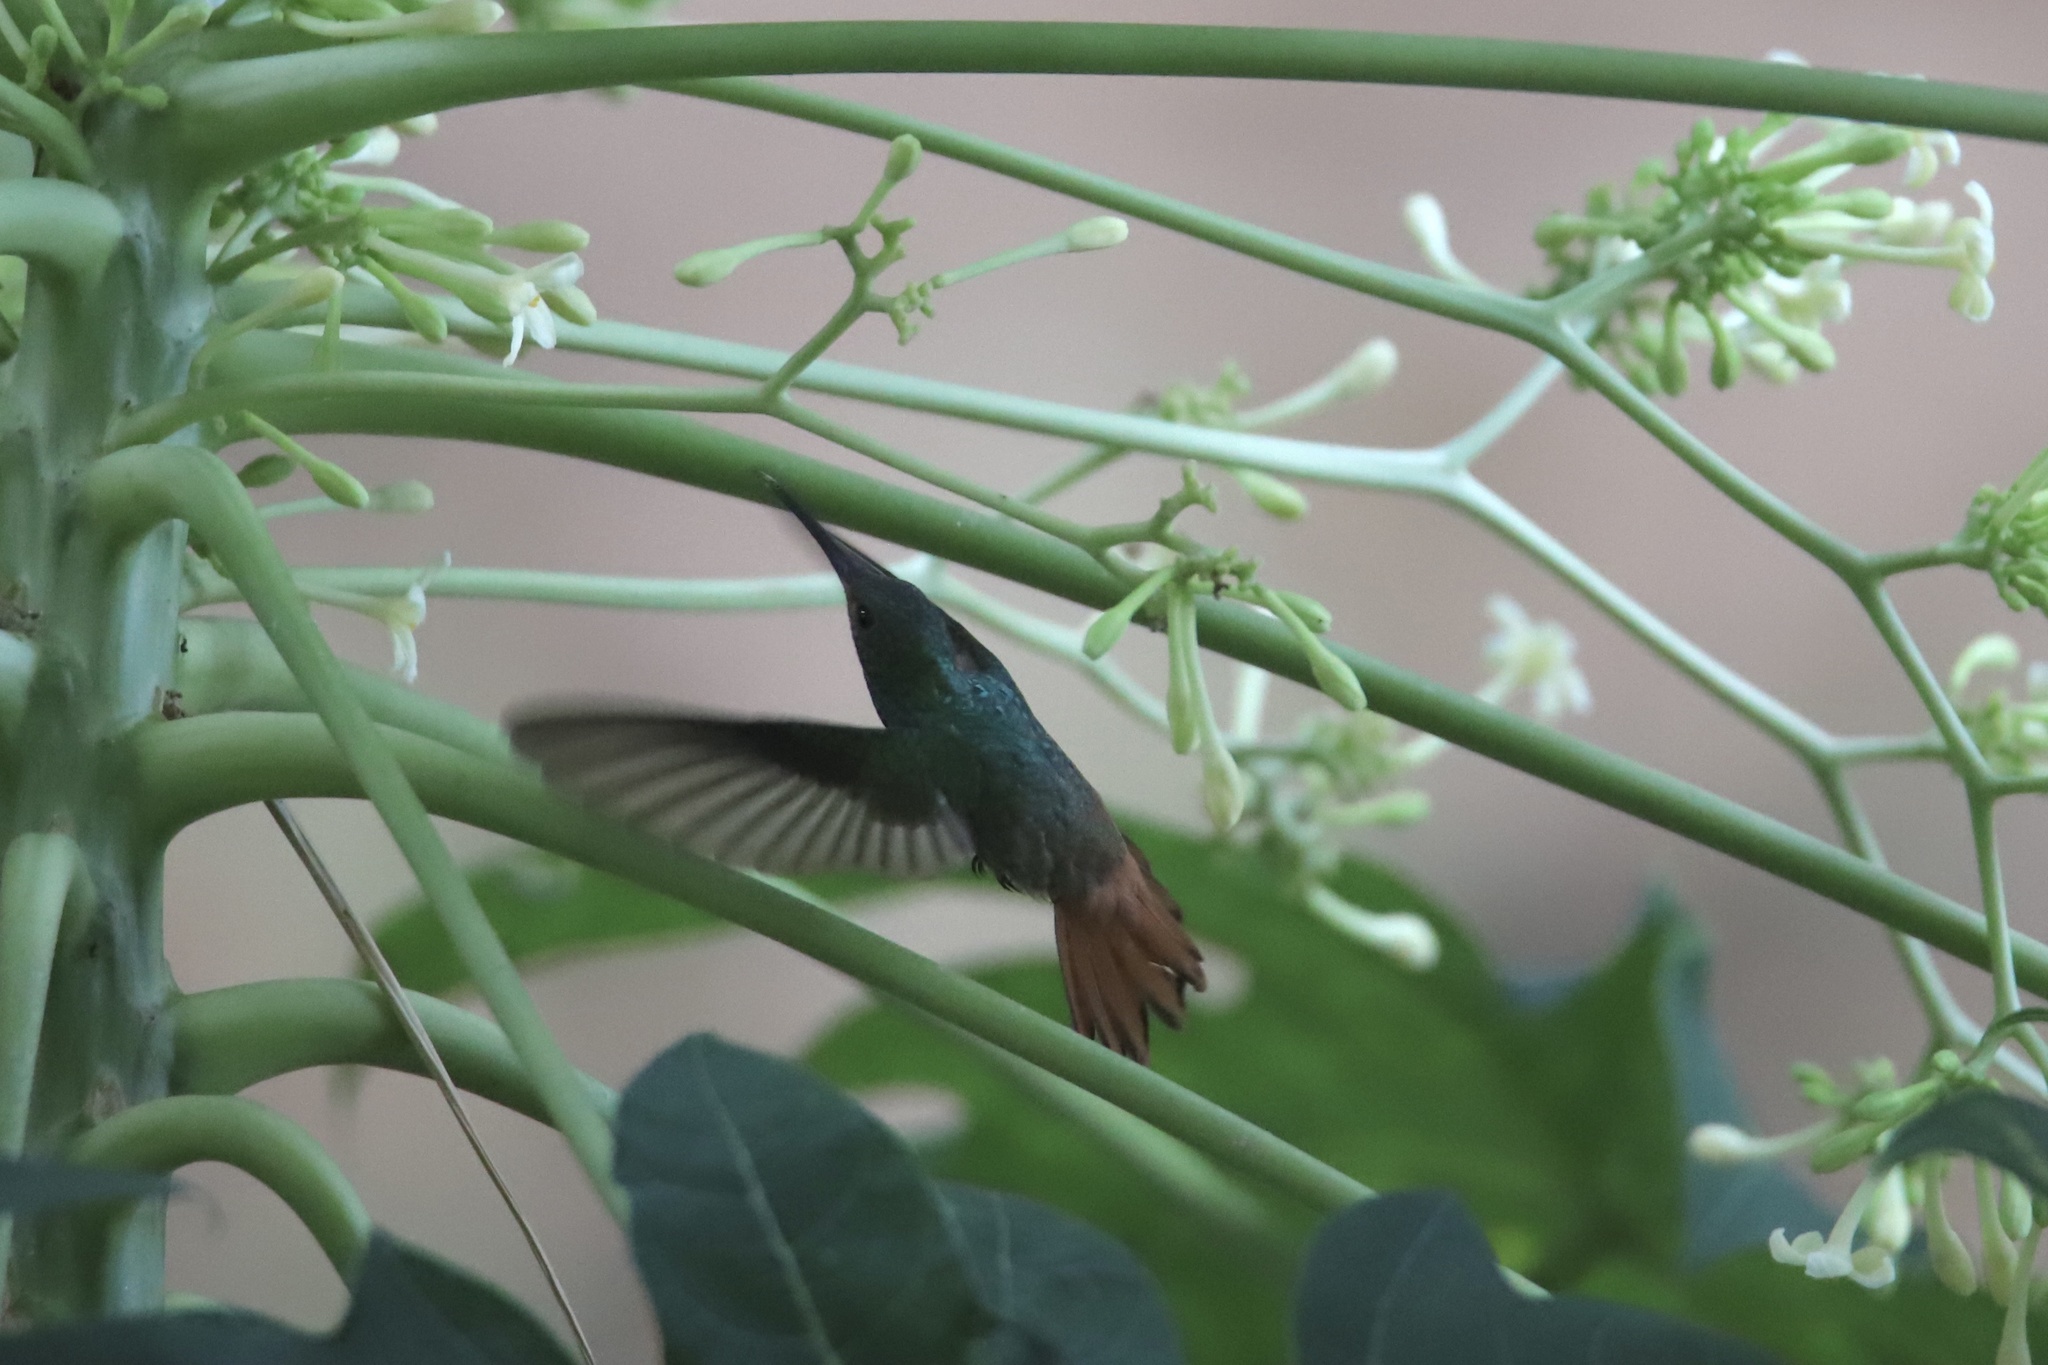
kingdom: Animalia
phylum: Chordata
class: Aves
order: Apodiformes
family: Trochilidae
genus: Amazilia
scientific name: Amazilia tzacatl
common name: Rufous-tailed hummingbird
